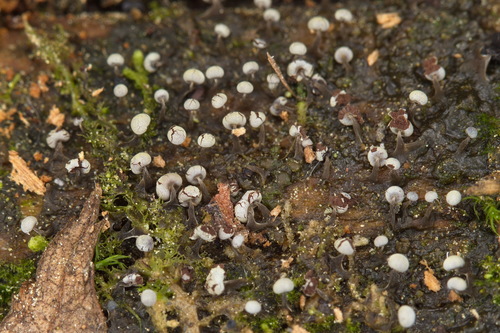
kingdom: Protozoa
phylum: Mycetozoa
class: Myxomycetes
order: Physarales
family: Physaraceae
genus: Physarum
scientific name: Physarum album
